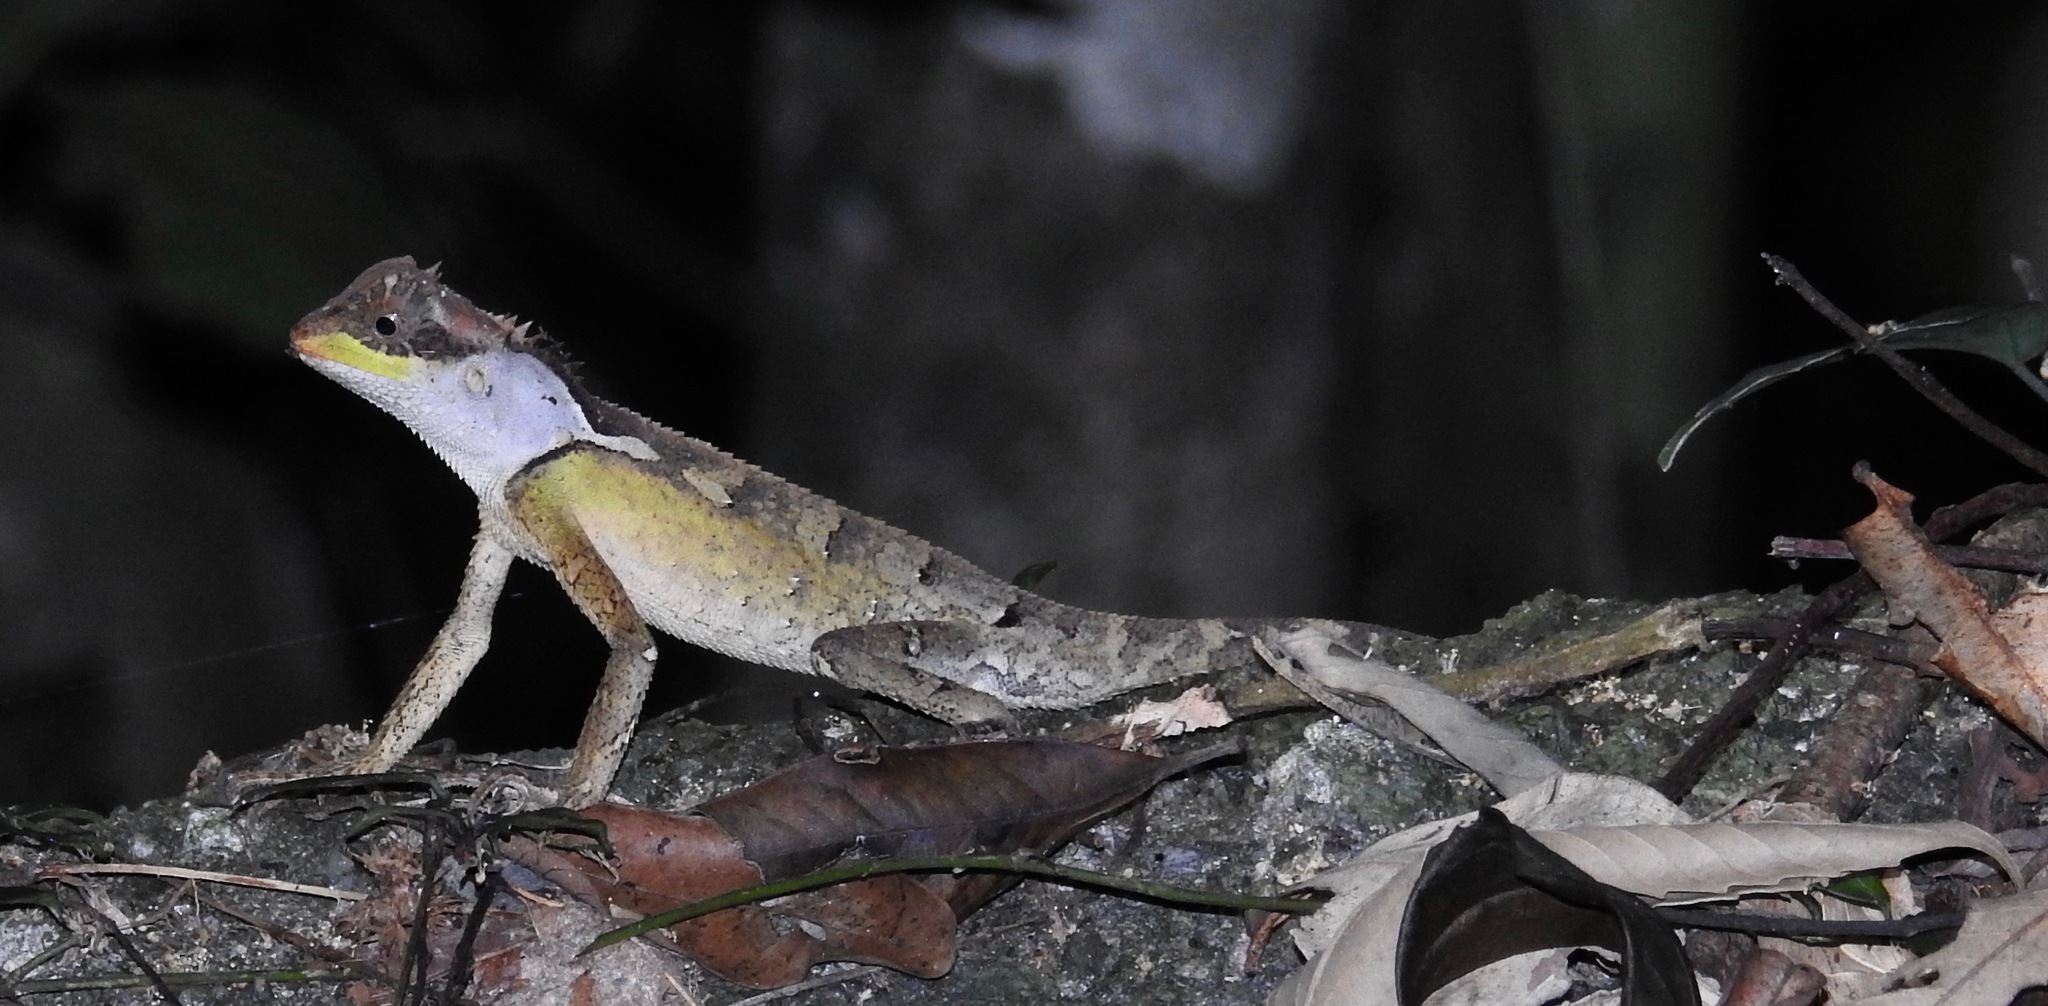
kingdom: Animalia
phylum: Chordata
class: Squamata
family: Agamidae
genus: Acanthosaura
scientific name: Acanthosaura lepidogaster
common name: Brown pricklenape
